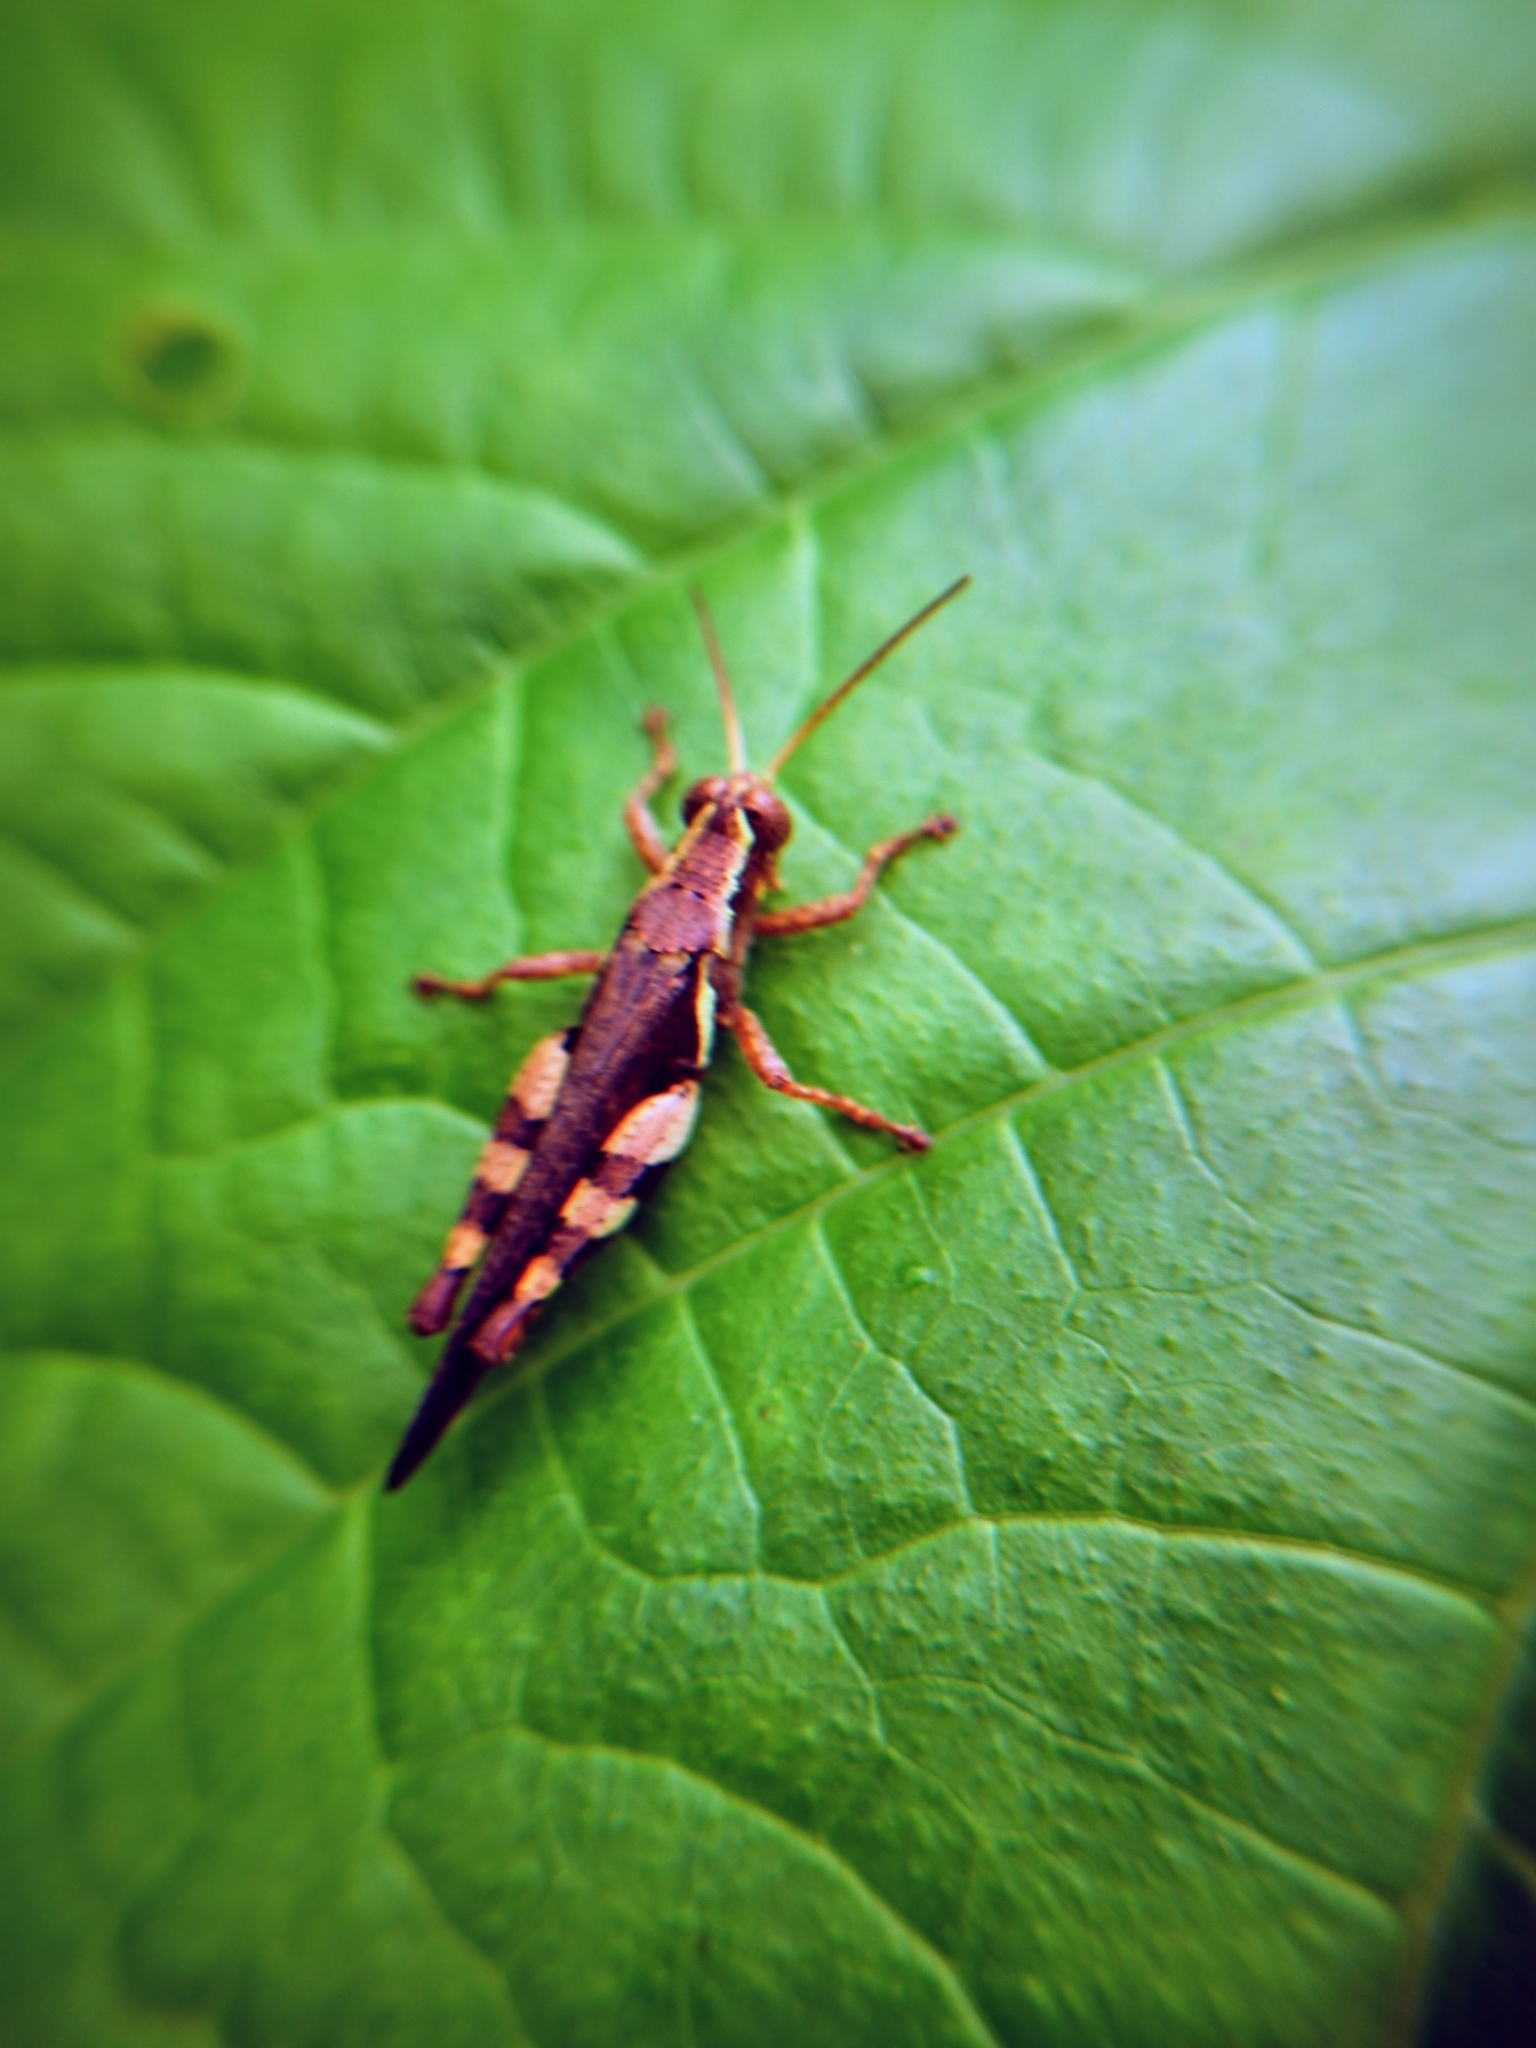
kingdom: Animalia
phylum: Arthropoda
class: Insecta
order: Orthoptera
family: Acrididae
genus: Xenocatantops
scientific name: Xenocatantops humile
